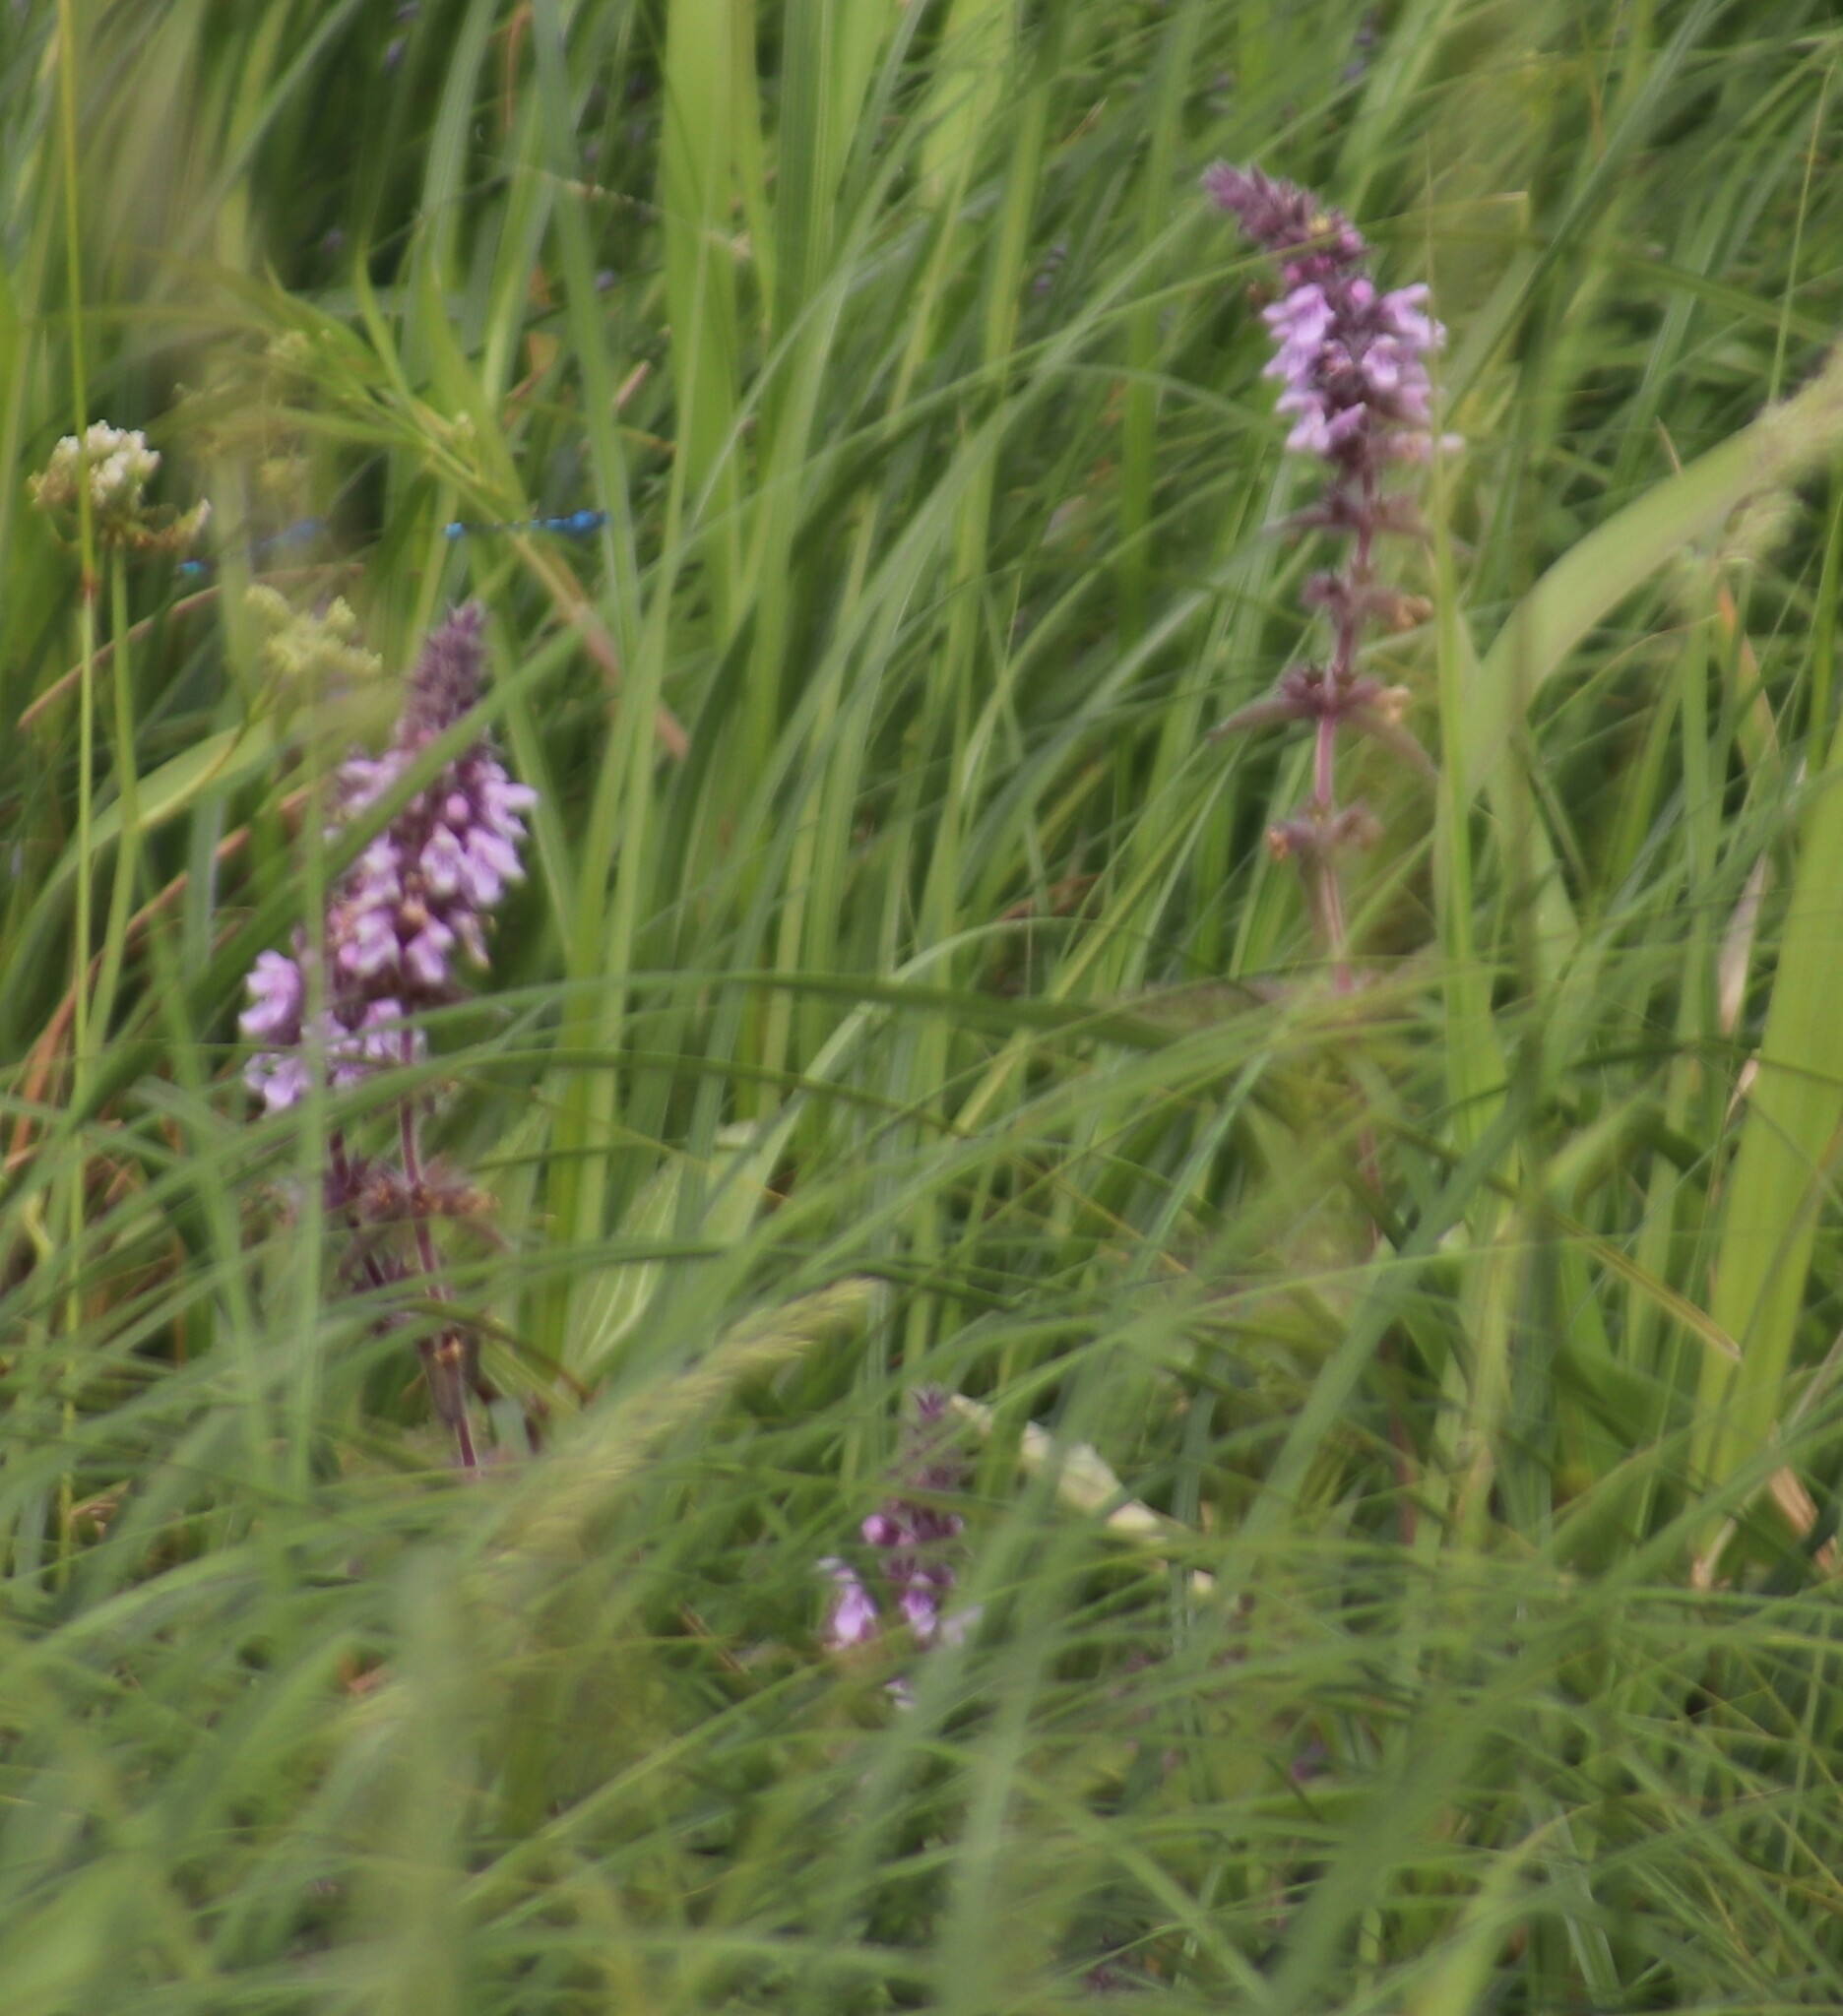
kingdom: Plantae
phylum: Tracheophyta
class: Magnoliopsida
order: Lamiales
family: Lamiaceae
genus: Stachys
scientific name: Stachys pilosa
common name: Hairy hedge-nettle
